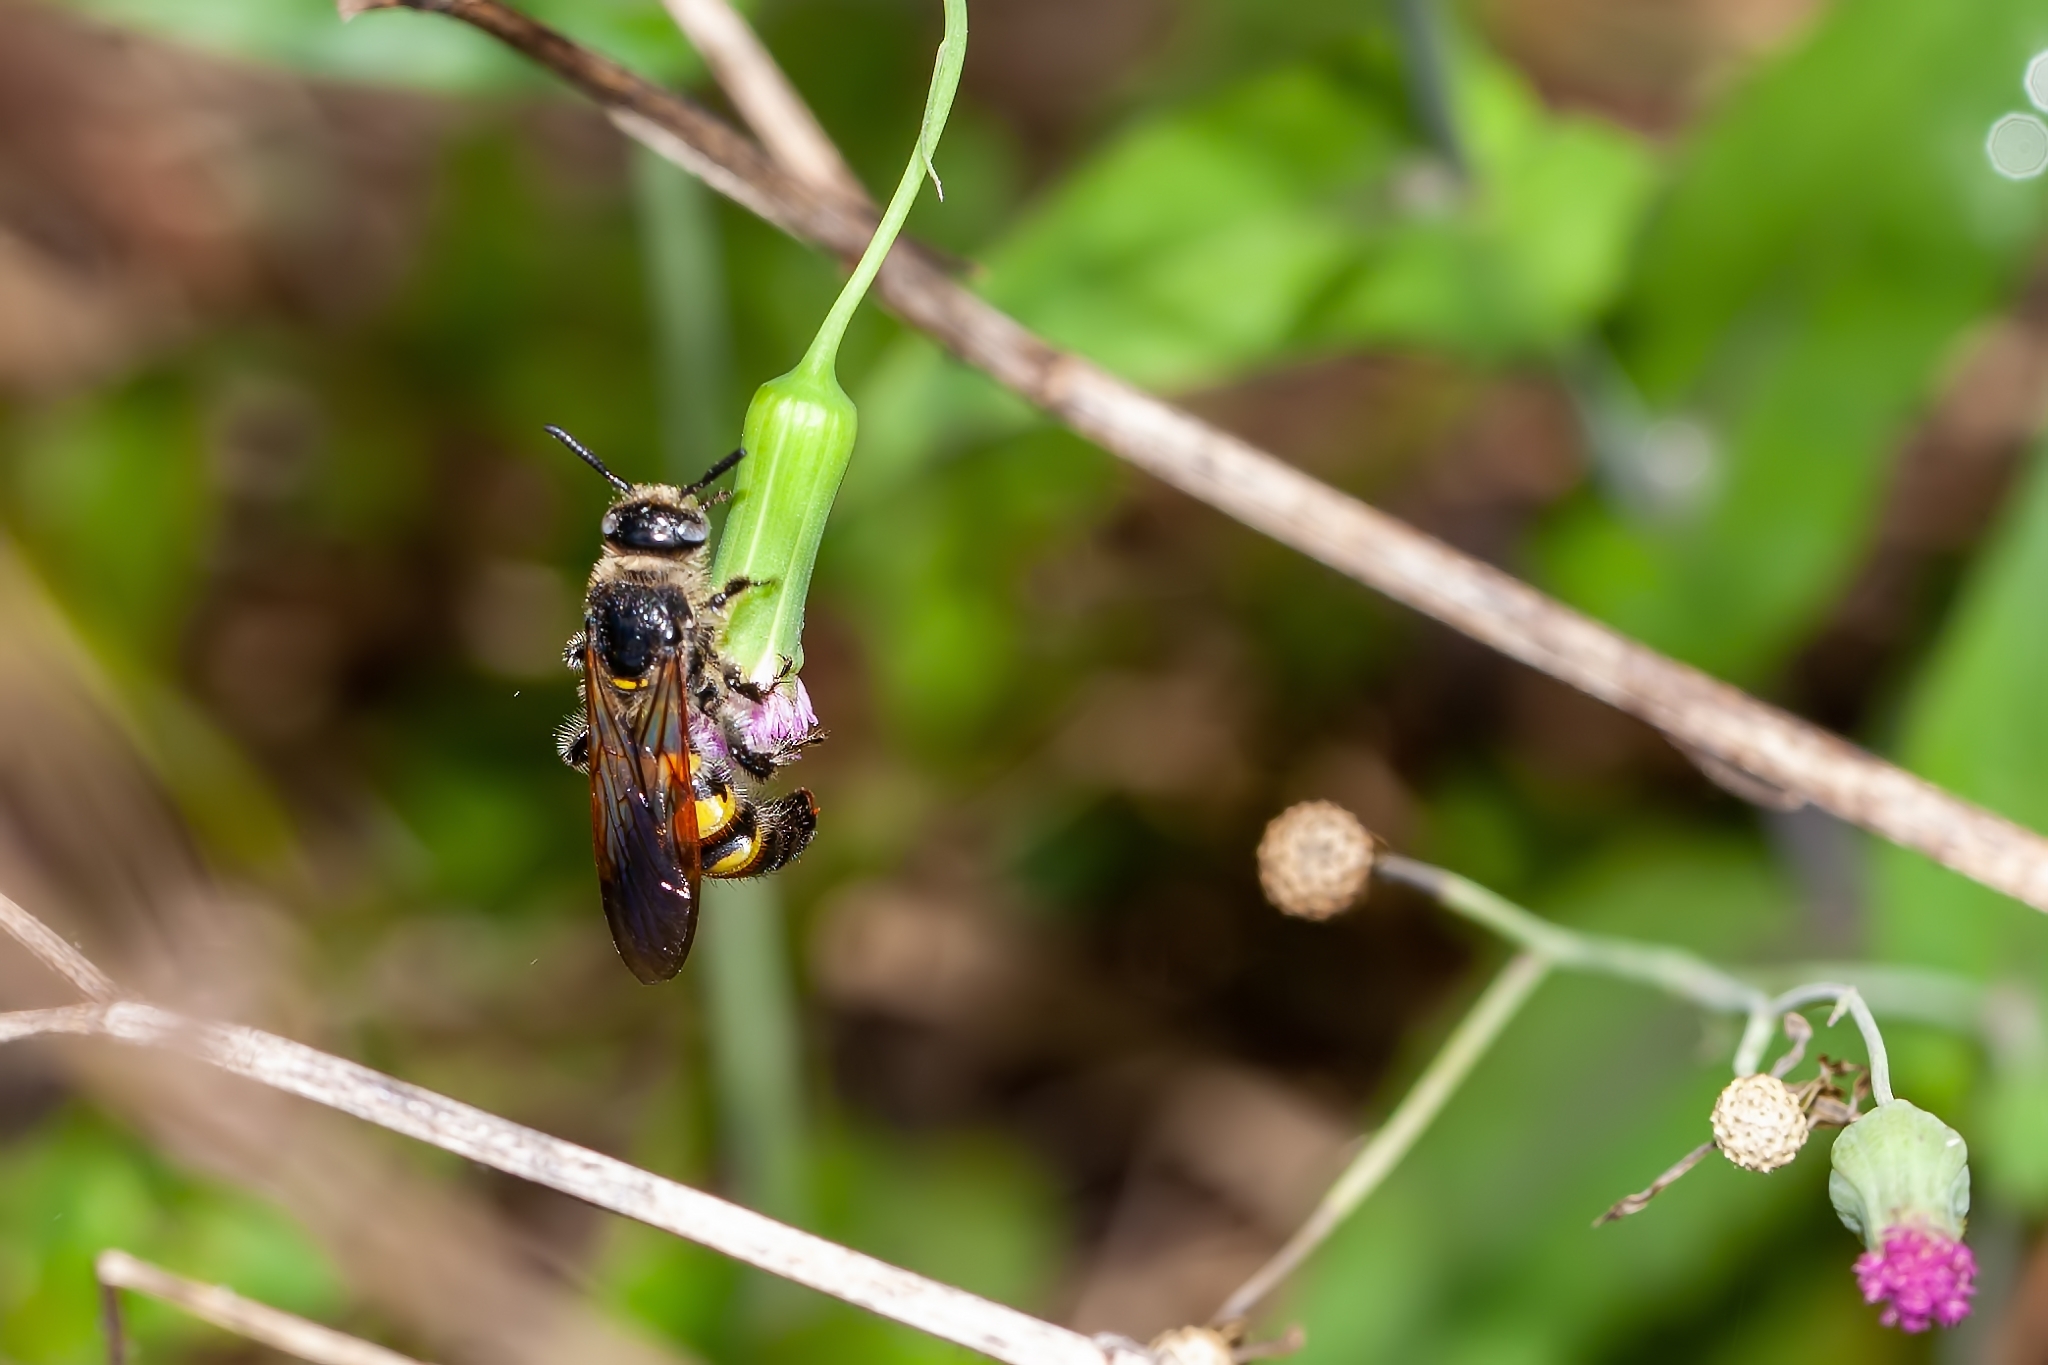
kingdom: Animalia
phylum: Arthropoda
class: Insecta
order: Hymenoptera
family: Scoliidae
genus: Dielis
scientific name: Dielis
